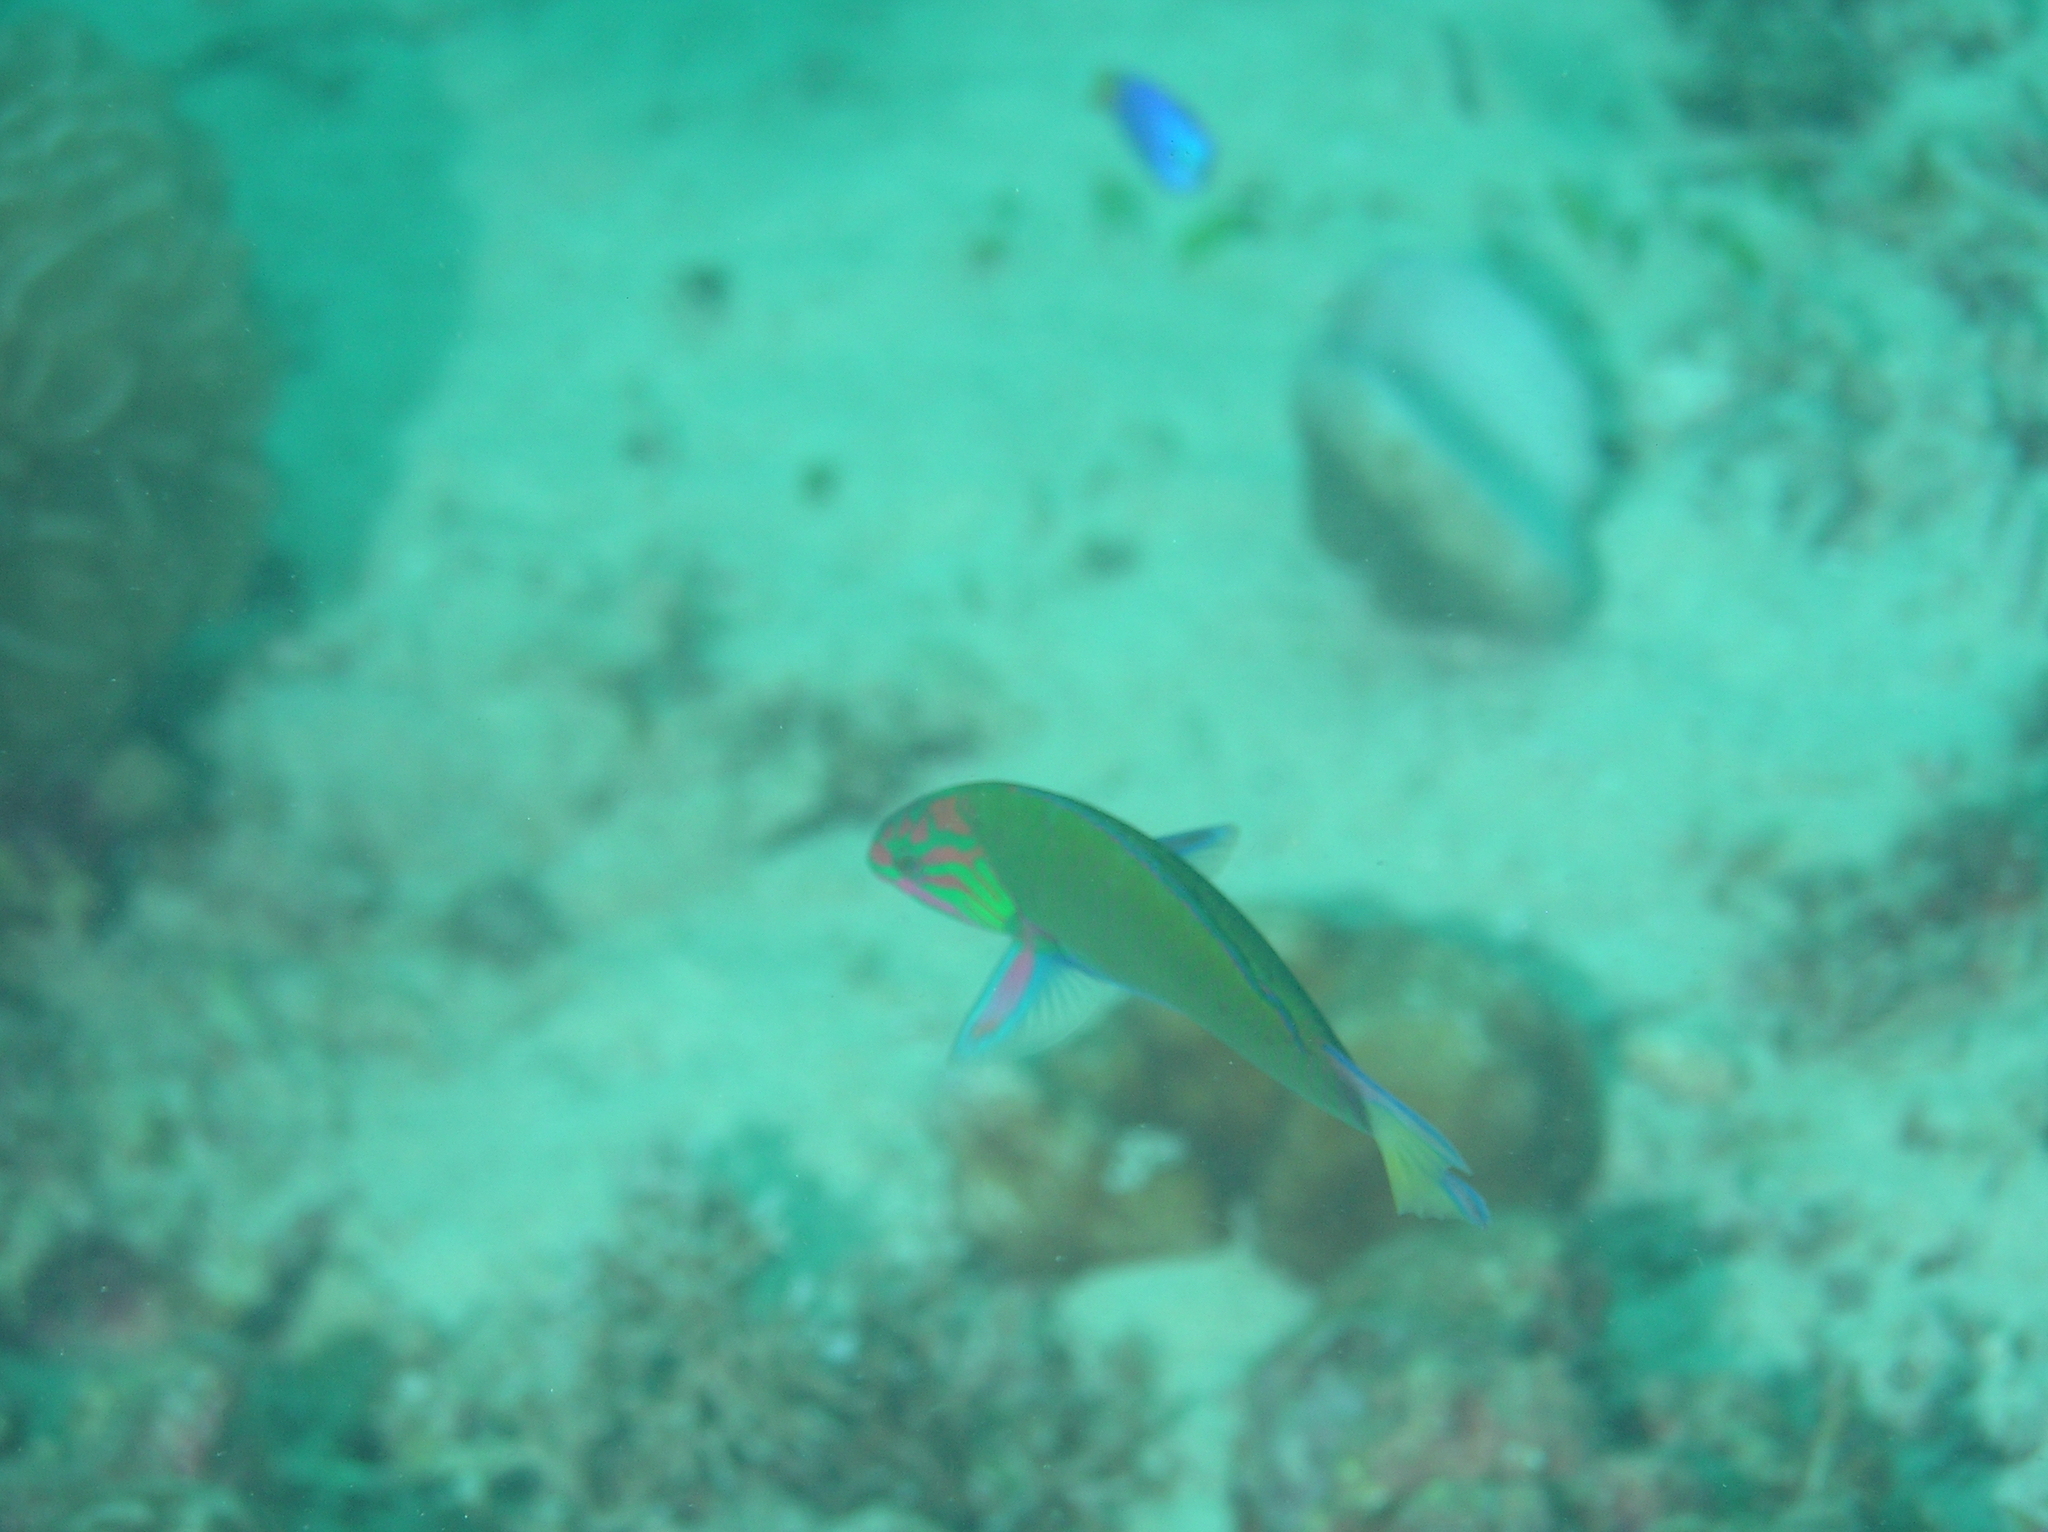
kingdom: Animalia
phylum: Chordata
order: Perciformes
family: Labridae
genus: Thalassoma
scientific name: Thalassoma lunare
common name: Blue wrasse
